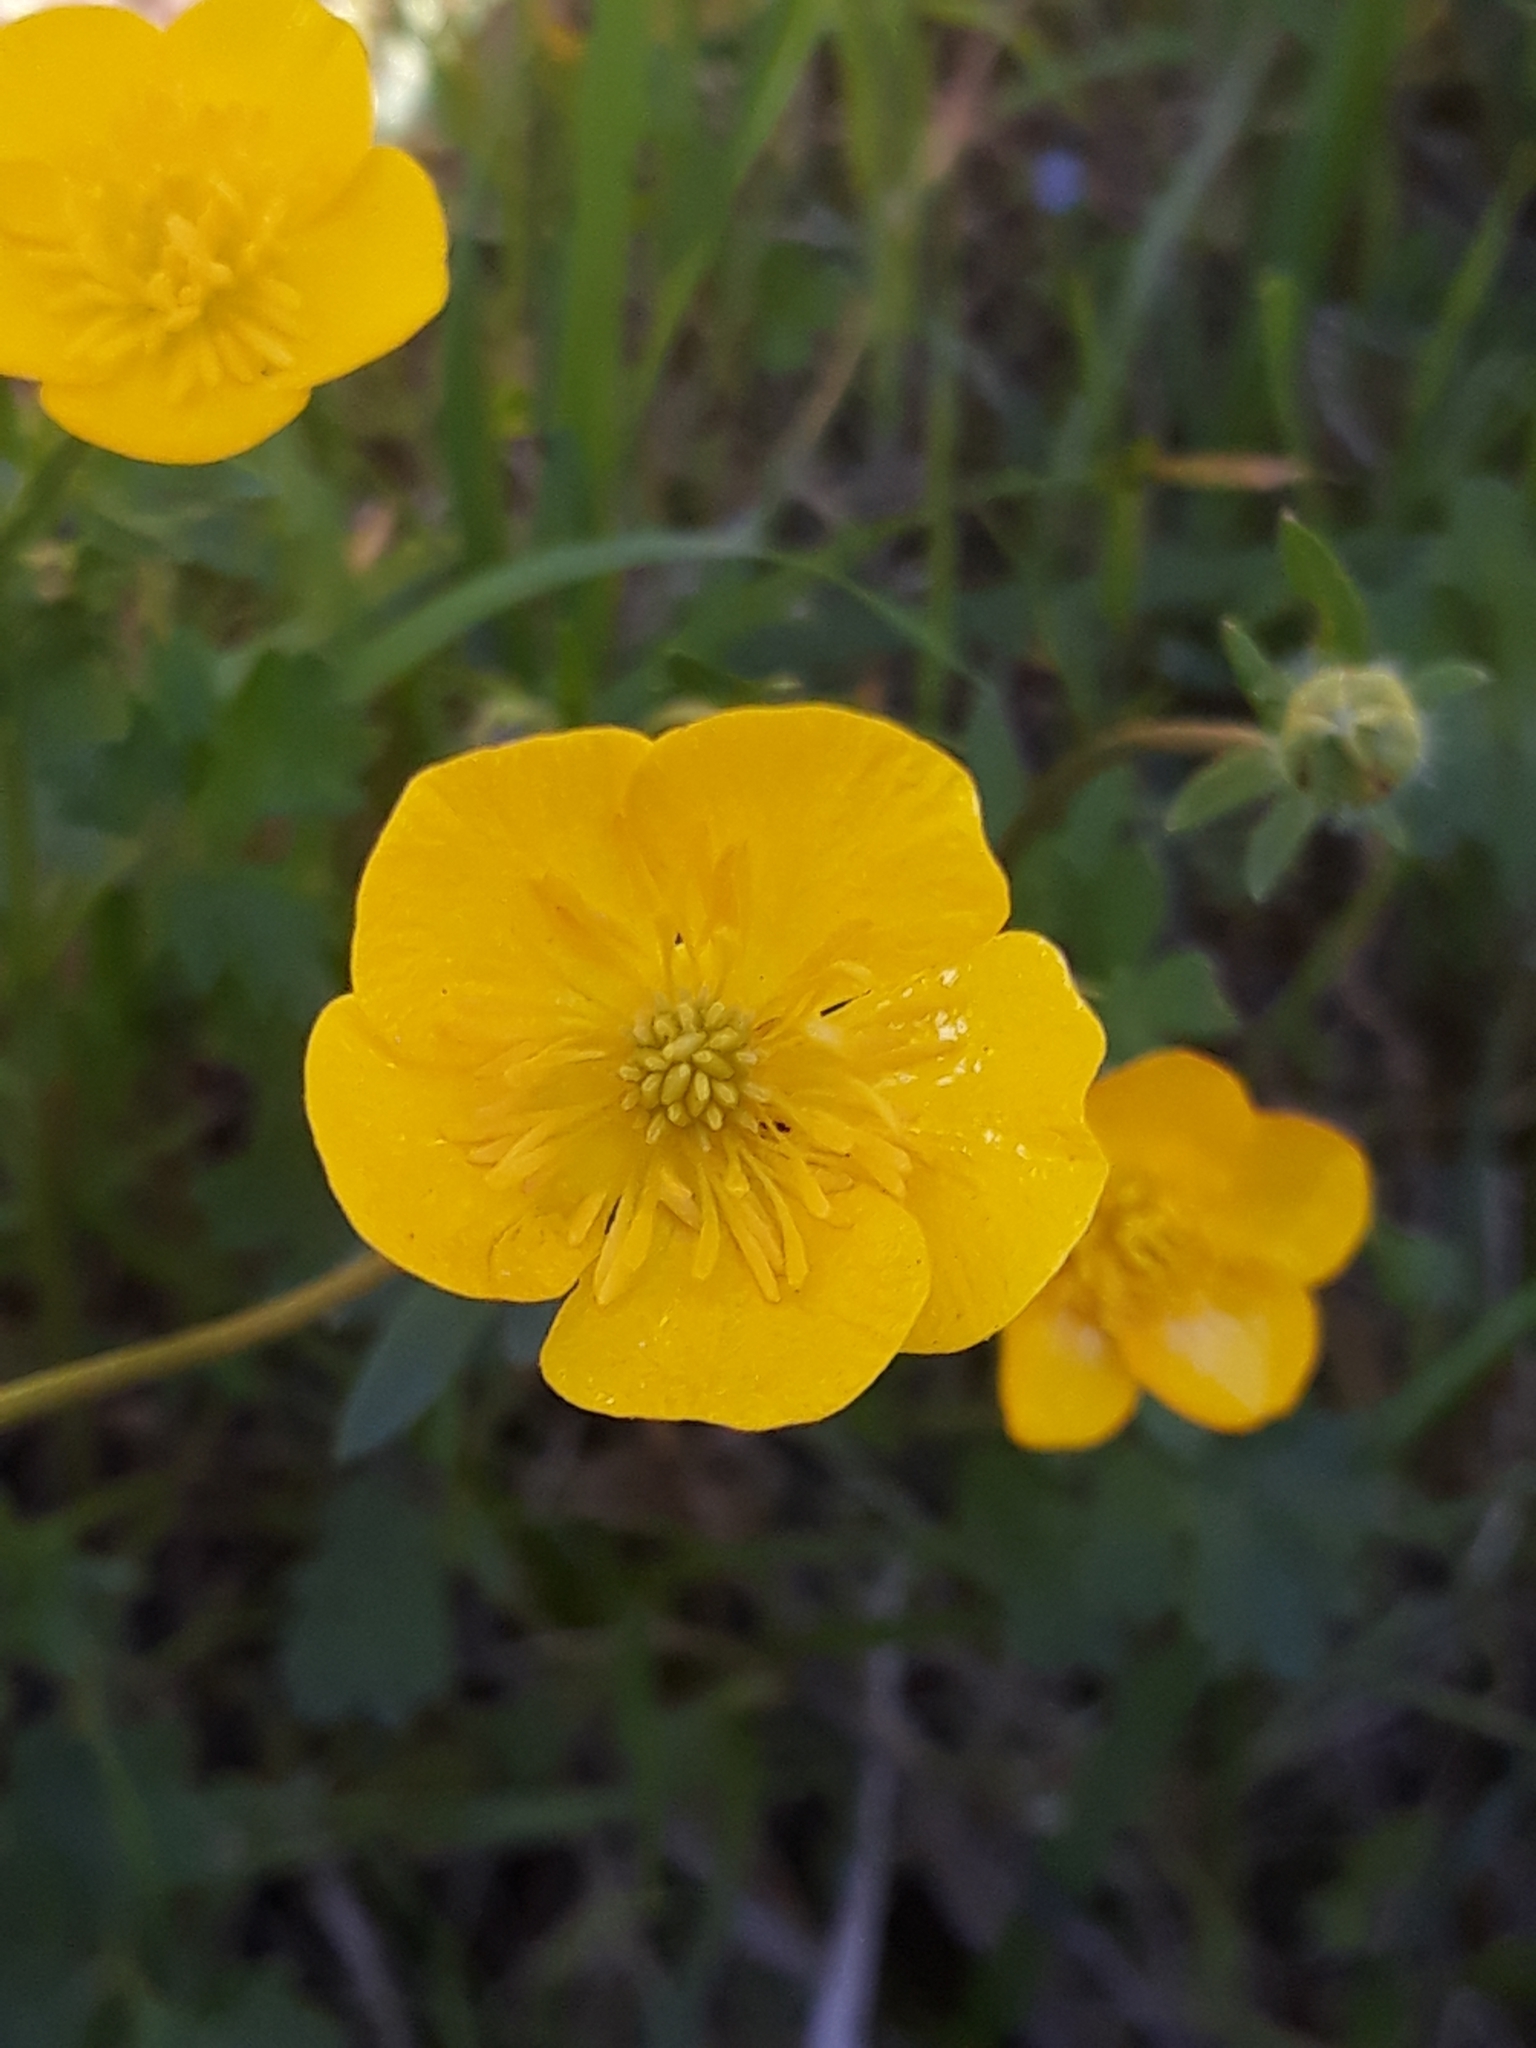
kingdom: Plantae
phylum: Tracheophyta
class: Magnoliopsida
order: Ranunculales
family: Ranunculaceae
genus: Ranunculus
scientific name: Ranunculus bulbosus
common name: Bulbous buttercup
